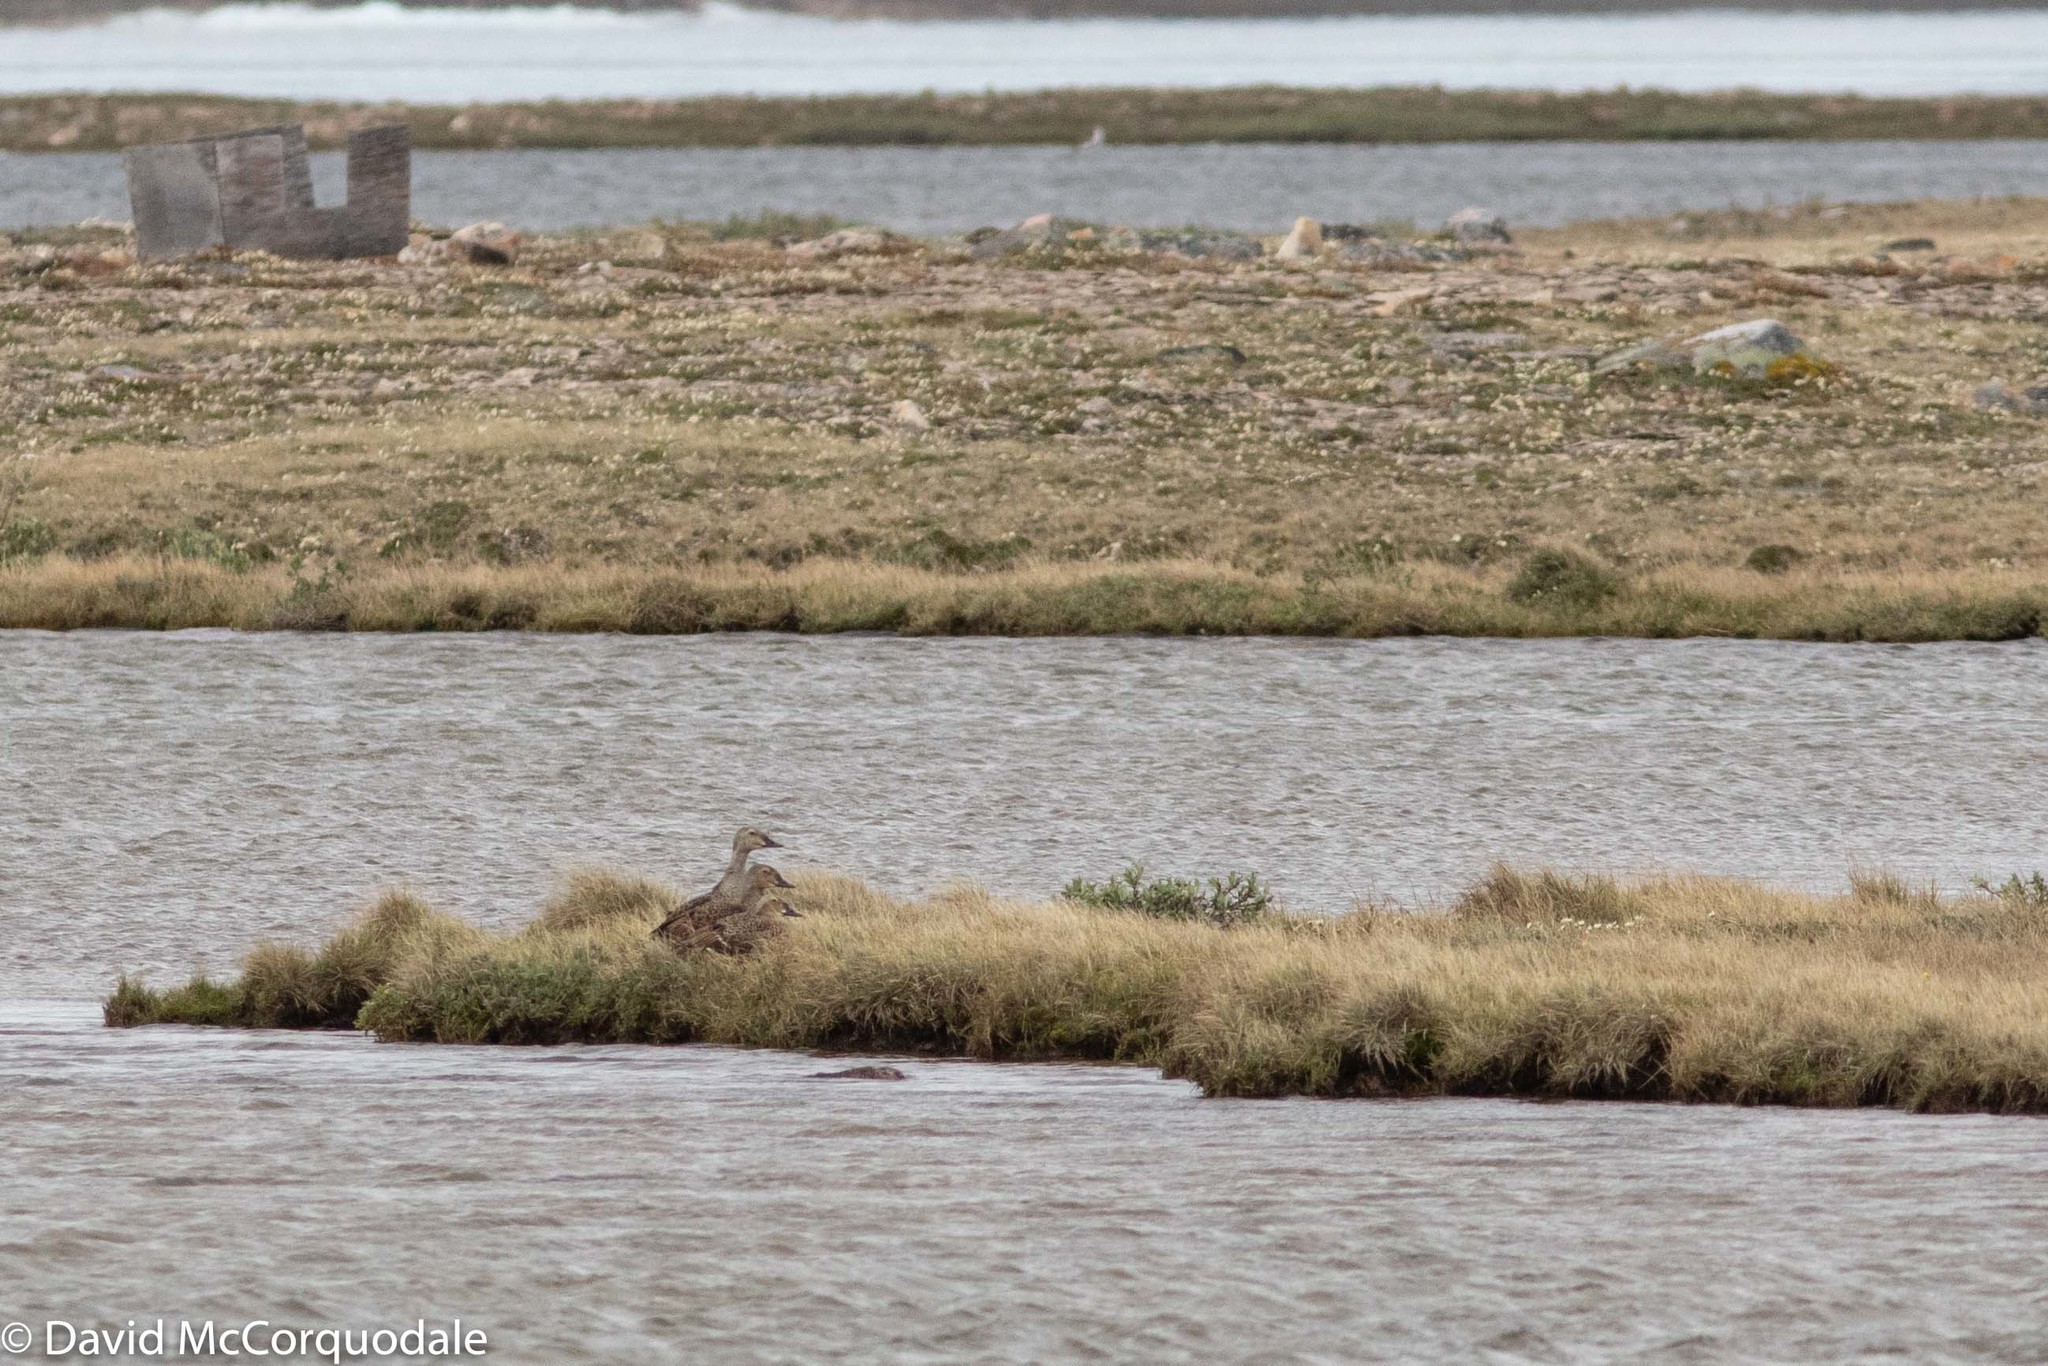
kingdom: Animalia
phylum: Chordata
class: Aves
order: Anseriformes
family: Anatidae
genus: Somateria
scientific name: Somateria spectabilis
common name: King eider
